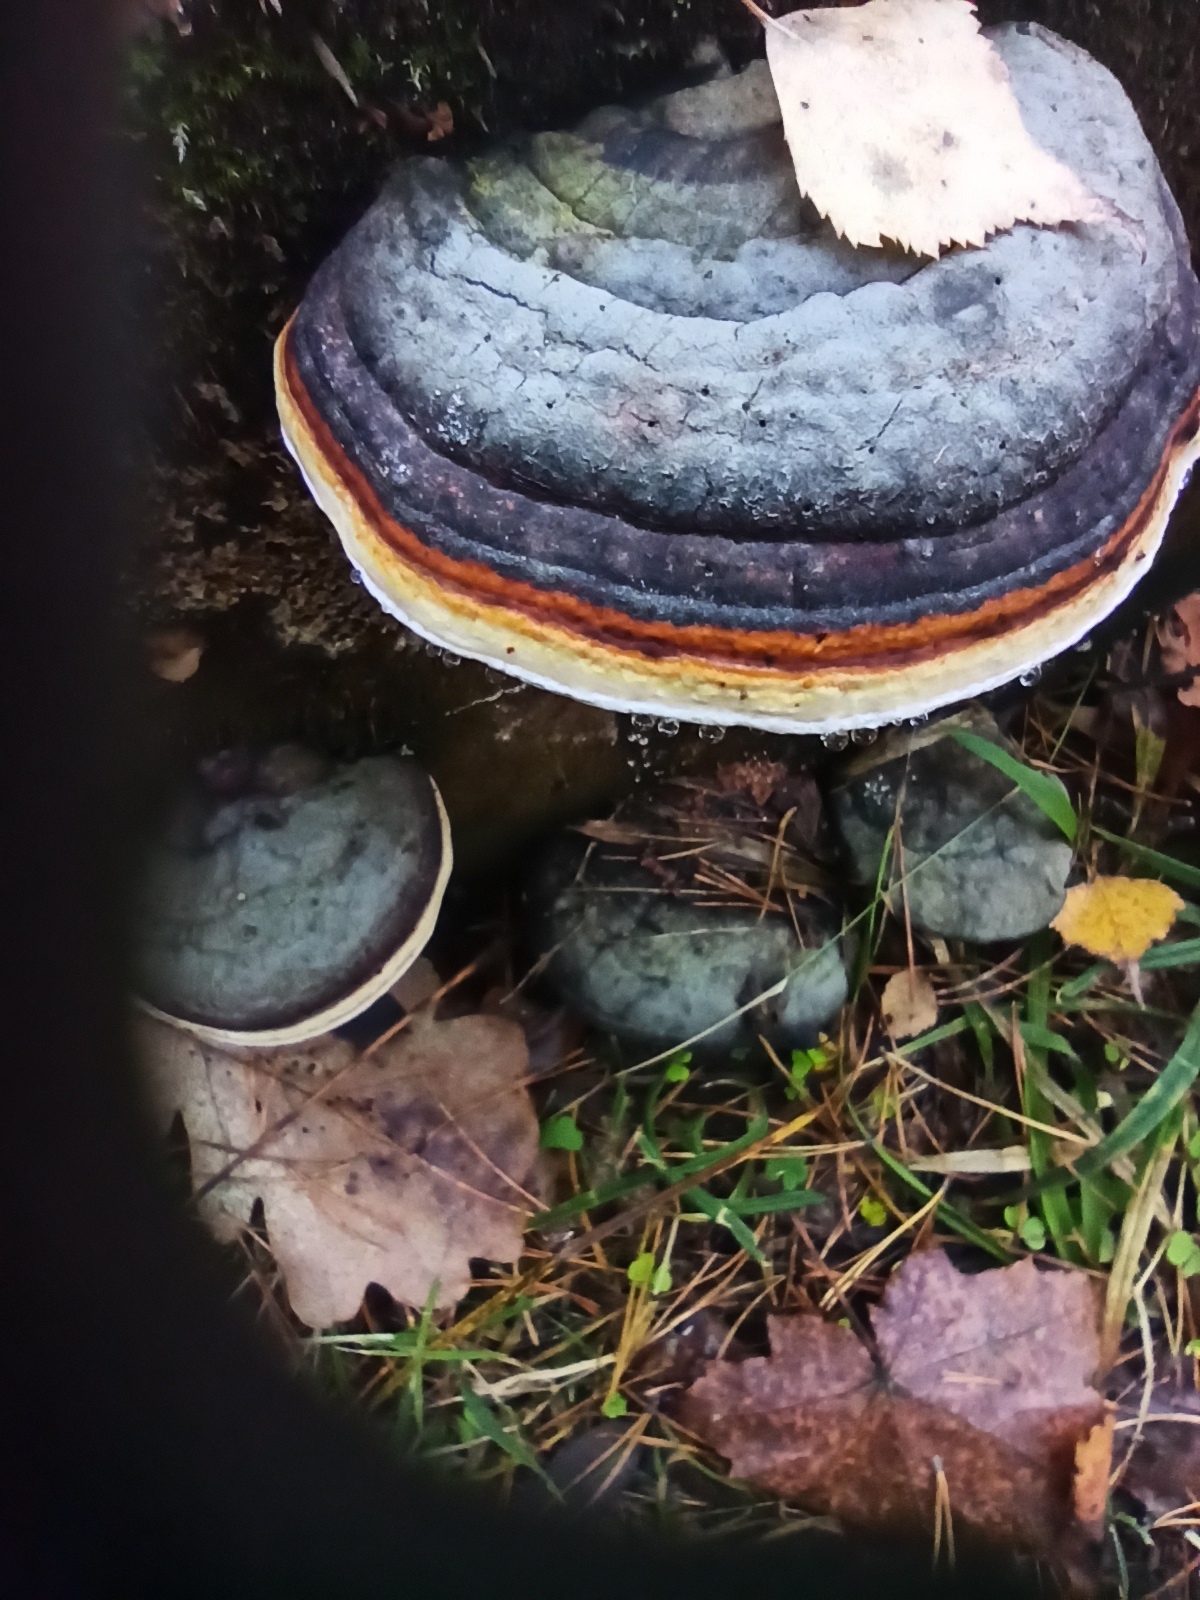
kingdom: Fungi
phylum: Basidiomycota
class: Agaricomycetes
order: Polyporales
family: Fomitopsidaceae
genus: Fomitopsis
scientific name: Fomitopsis pinicola
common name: Red-belted bracket
